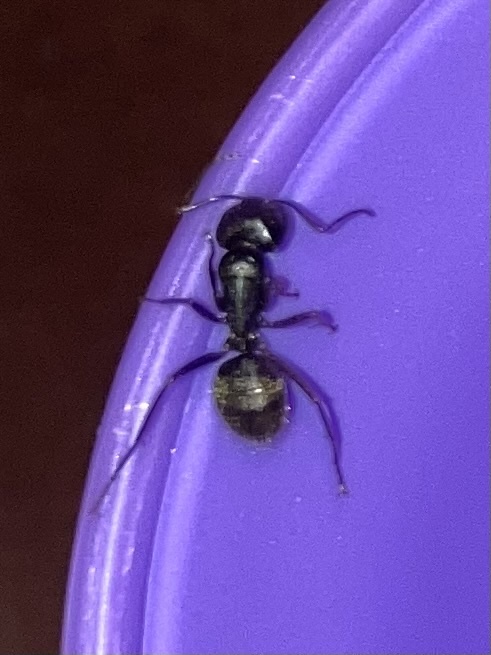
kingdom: Animalia
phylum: Arthropoda
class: Insecta
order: Hymenoptera
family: Formicidae
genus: Camponotus
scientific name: Camponotus pennsylvanicus
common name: Black carpenter ant
